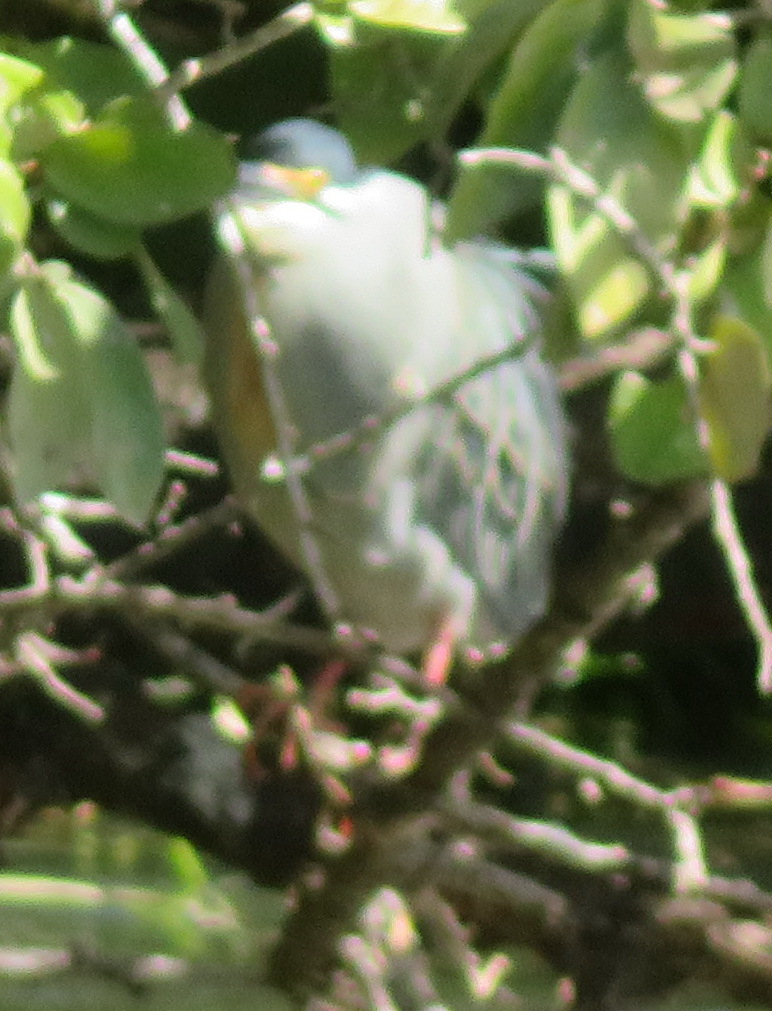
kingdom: Animalia
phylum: Chordata
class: Aves
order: Pelecaniformes
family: Ardeidae
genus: Butorides
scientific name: Butorides striata
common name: Striated heron
